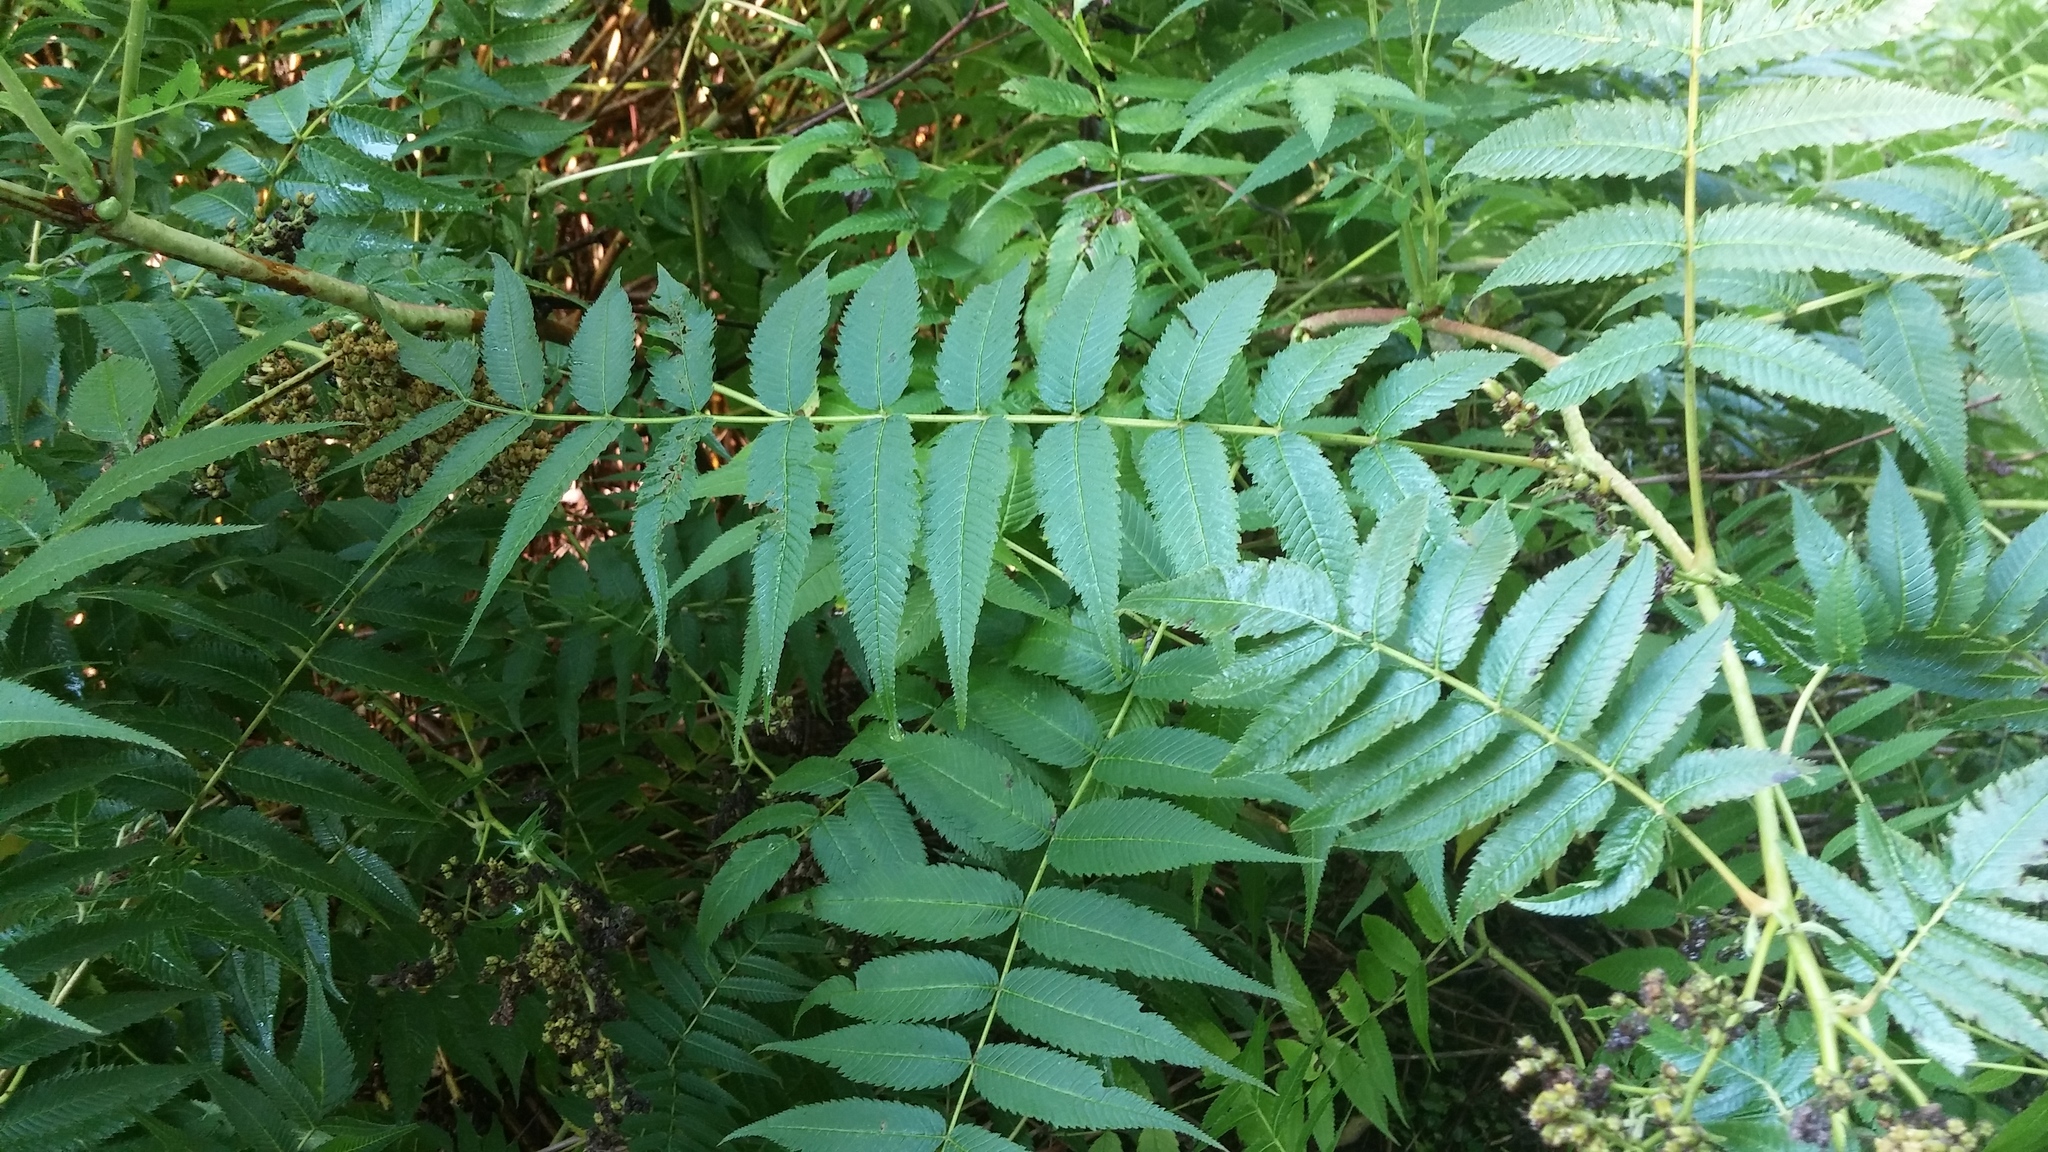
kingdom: Plantae
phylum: Tracheophyta
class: Magnoliopsida
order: Rosales
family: Rosaceae
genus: Sorbaria
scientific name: Sorbaria sorbifolia
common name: False spiraea
